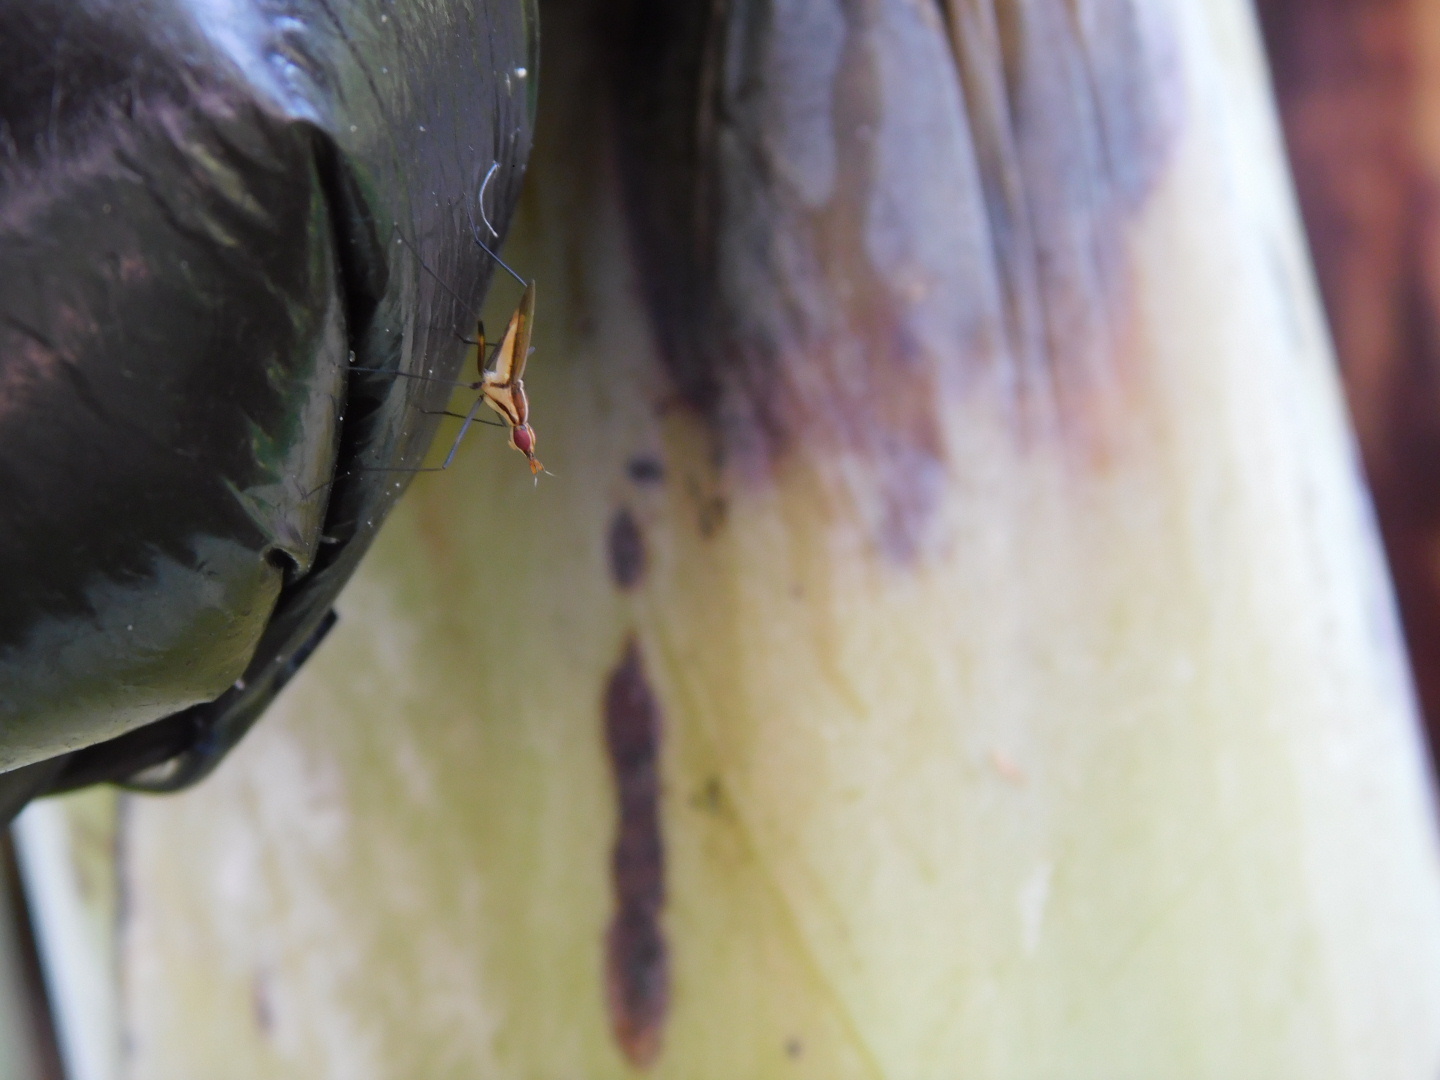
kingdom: Animalia
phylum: Arthropoda
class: Insecta
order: Diptera
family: Neriidae
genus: Telostylinus
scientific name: Telostylinus lineolatus
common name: Banana stalk fly
